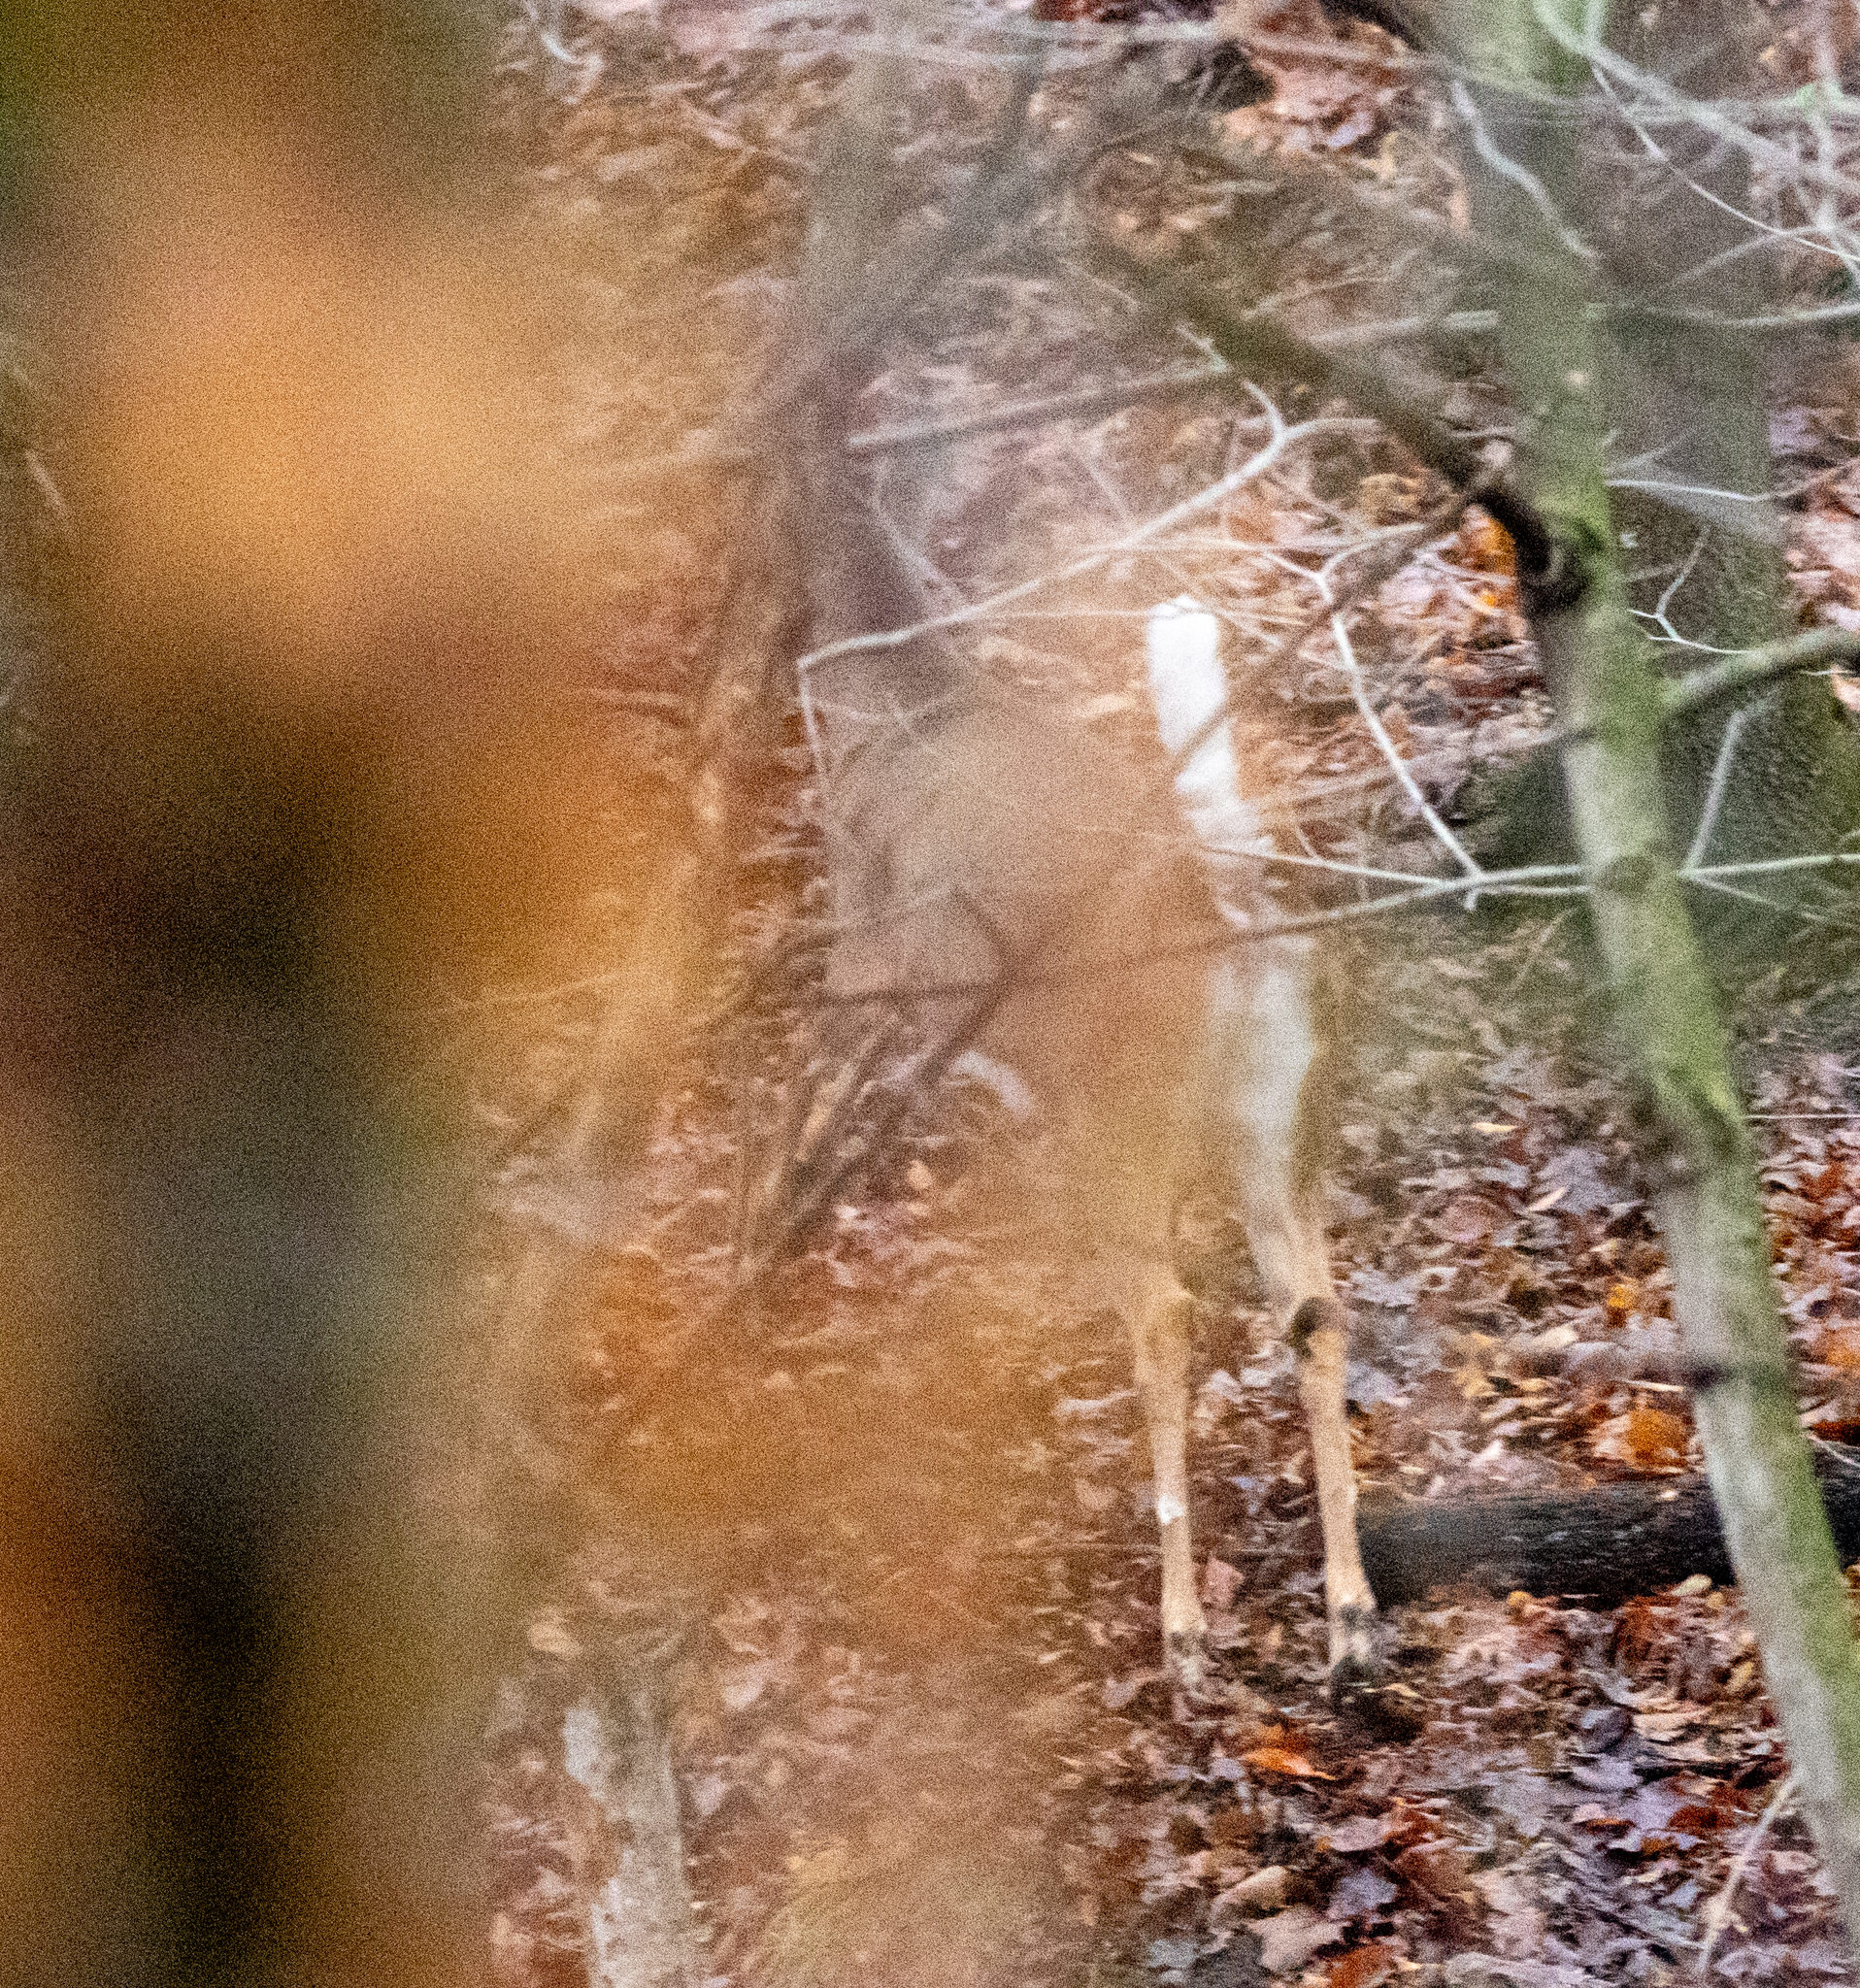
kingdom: Animalia
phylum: Chordata
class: Mammalia
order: Artiodactyla
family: Cervidae
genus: Odocoileus
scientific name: Odocoileus virginianus
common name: White-tailed deer
